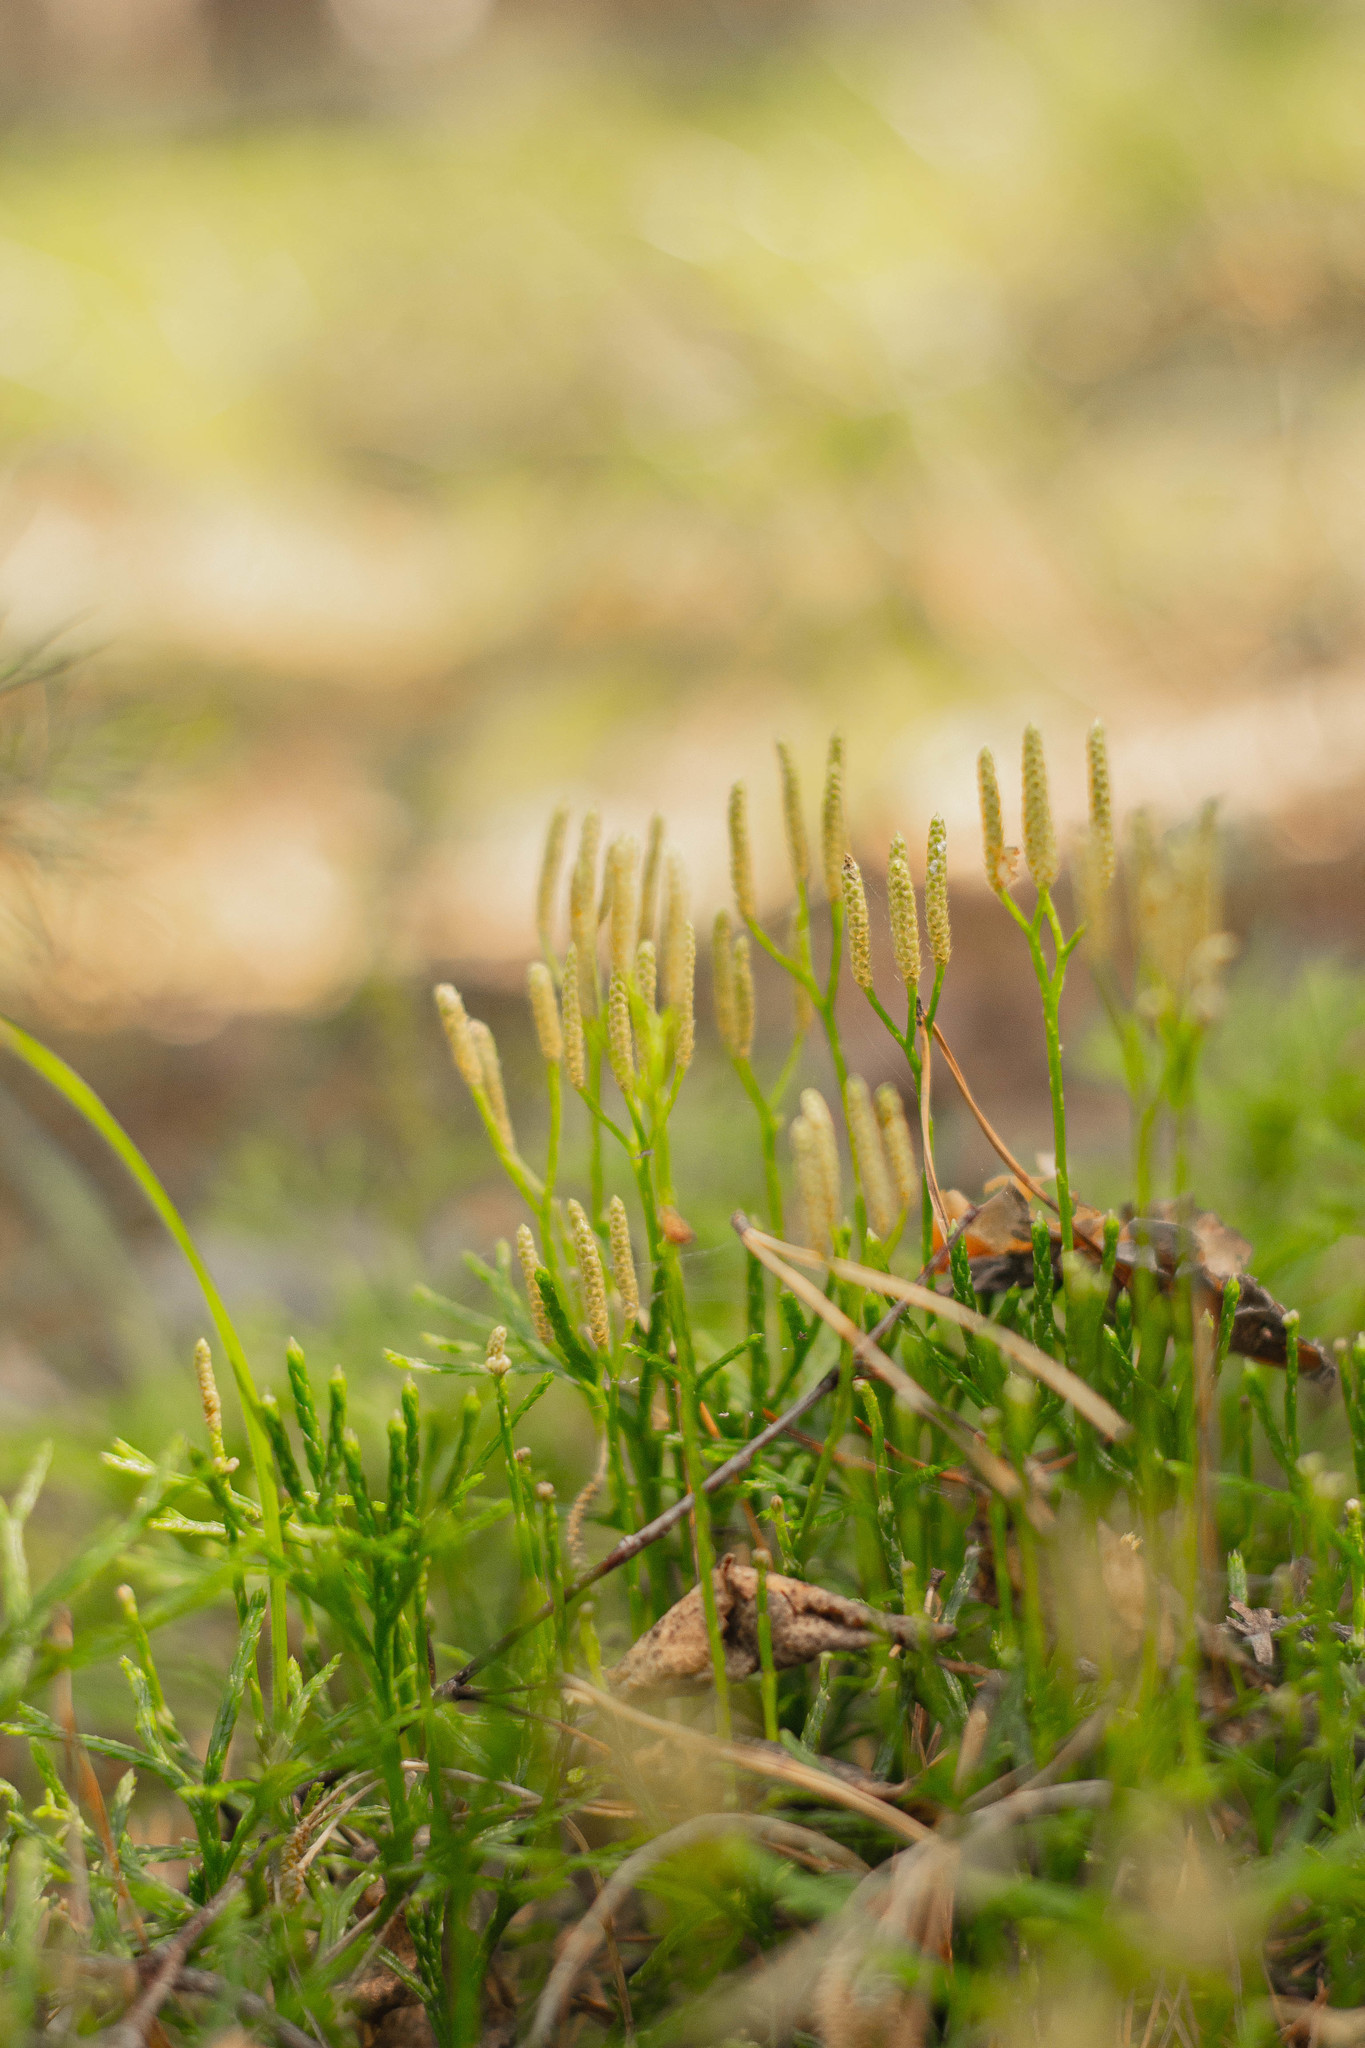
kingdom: Plantae
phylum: Tracheophyta
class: Lycopodiopsida
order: Lycopodiales
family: Lycopodiaceae
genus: Diphasiastrum
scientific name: Diphasiastrum complanatum
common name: Northern running-pine
